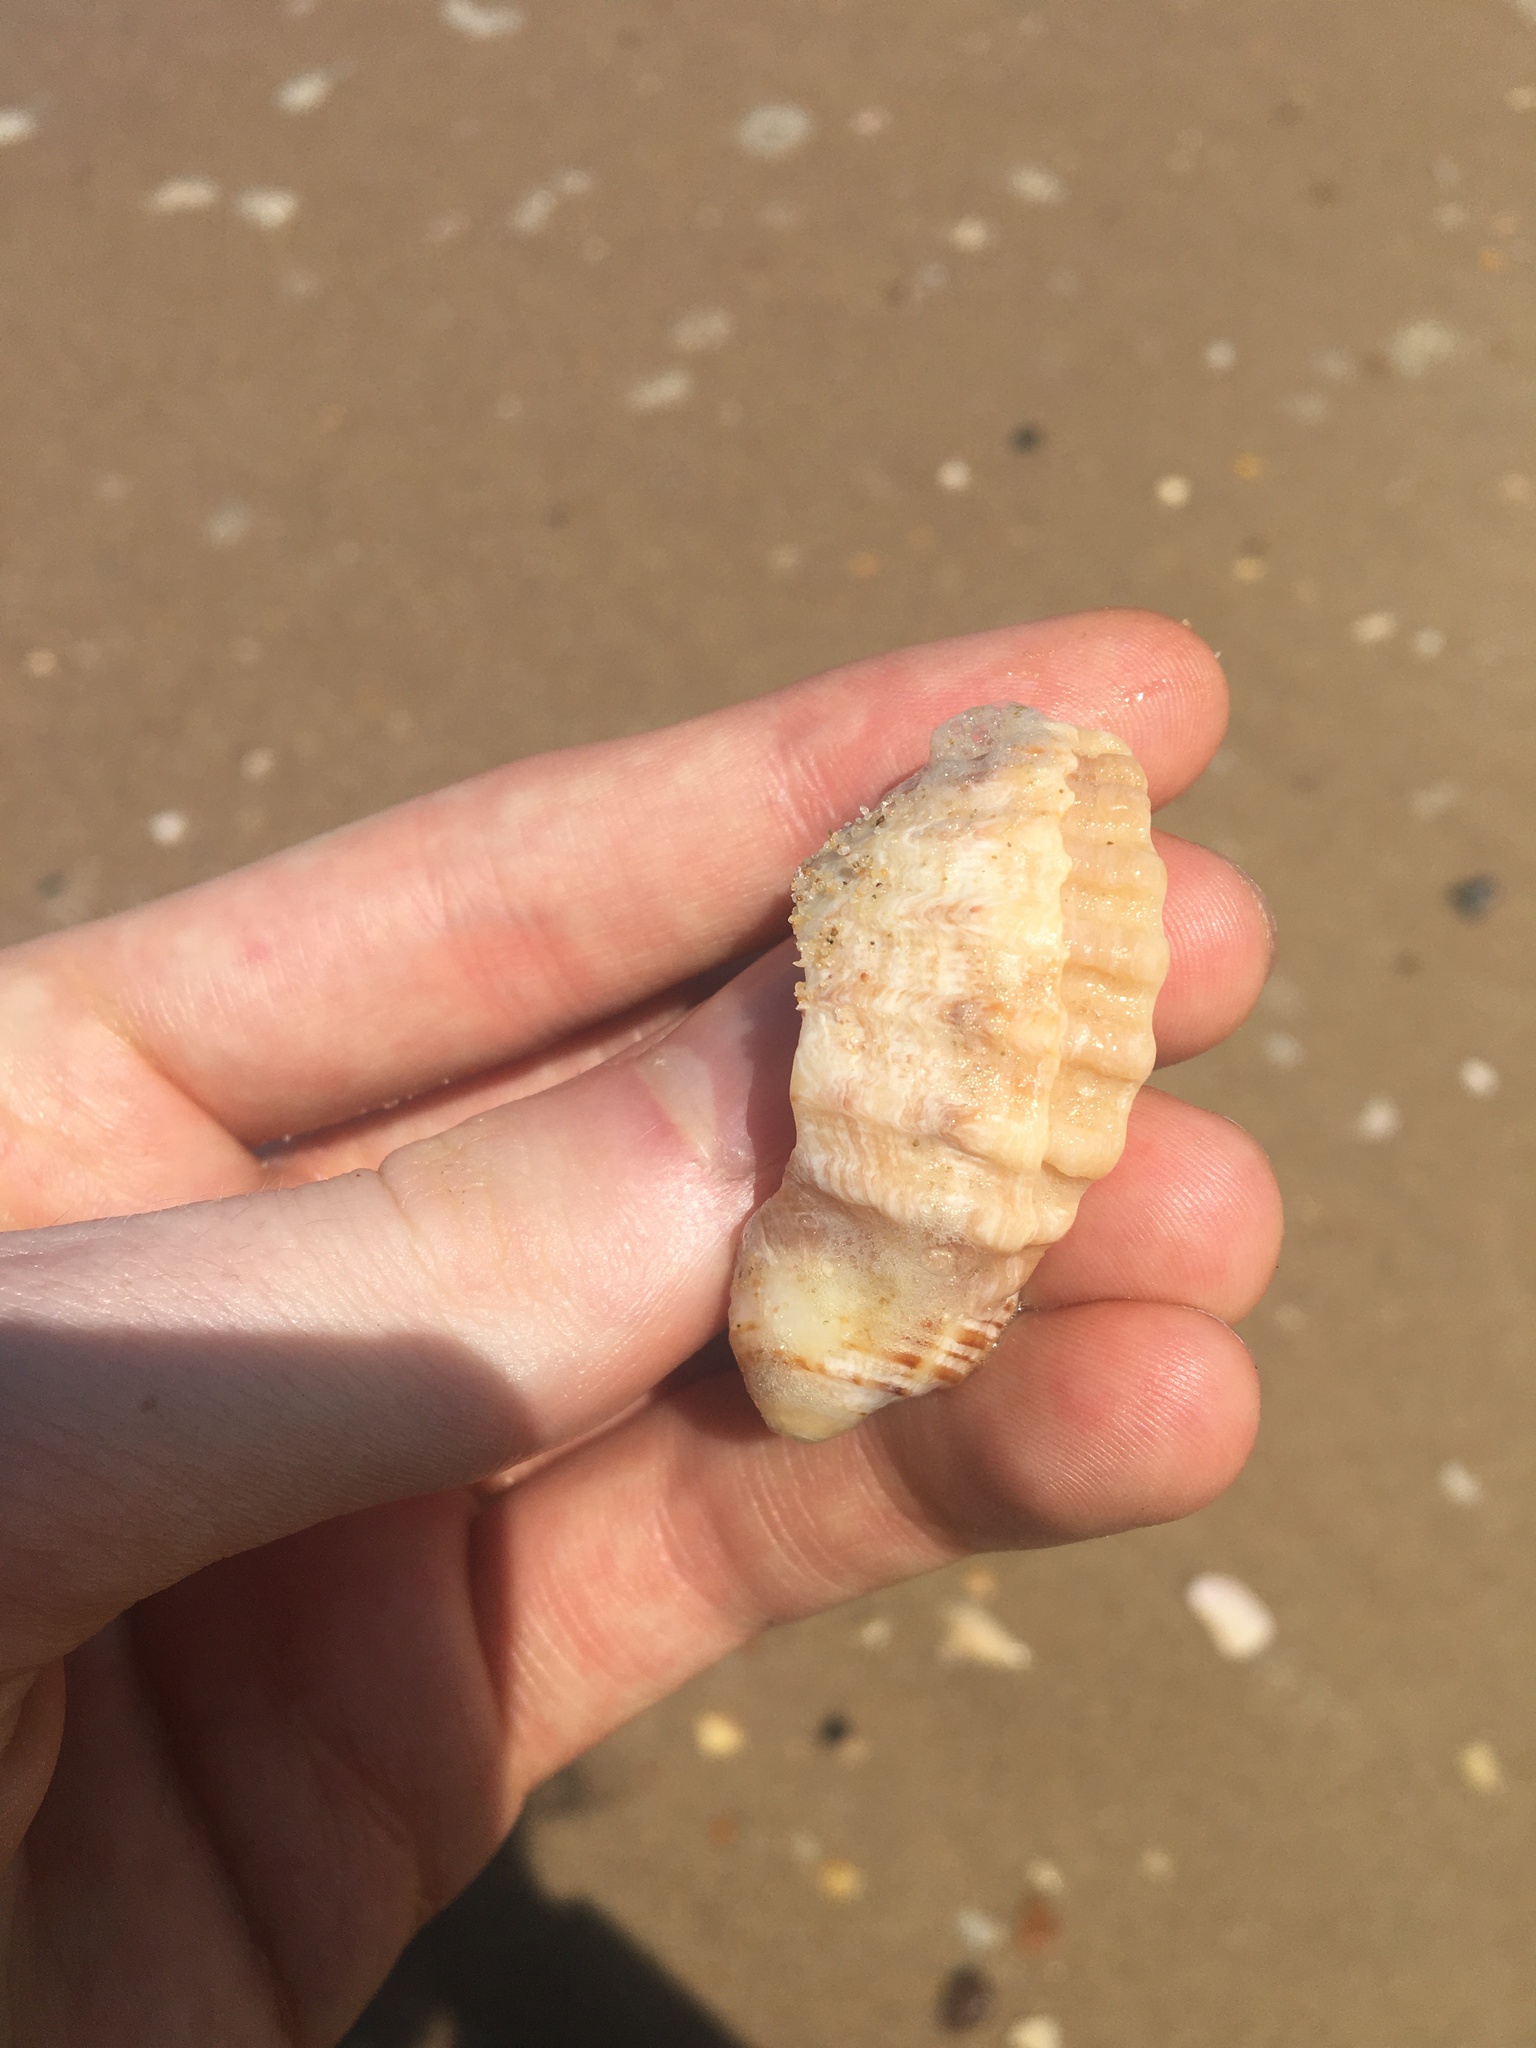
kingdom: Animalia
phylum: Mollusca
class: Gastropoda
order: Neogastropoda
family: Muricidae
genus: Dicathais
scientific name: Dicathais orbita
